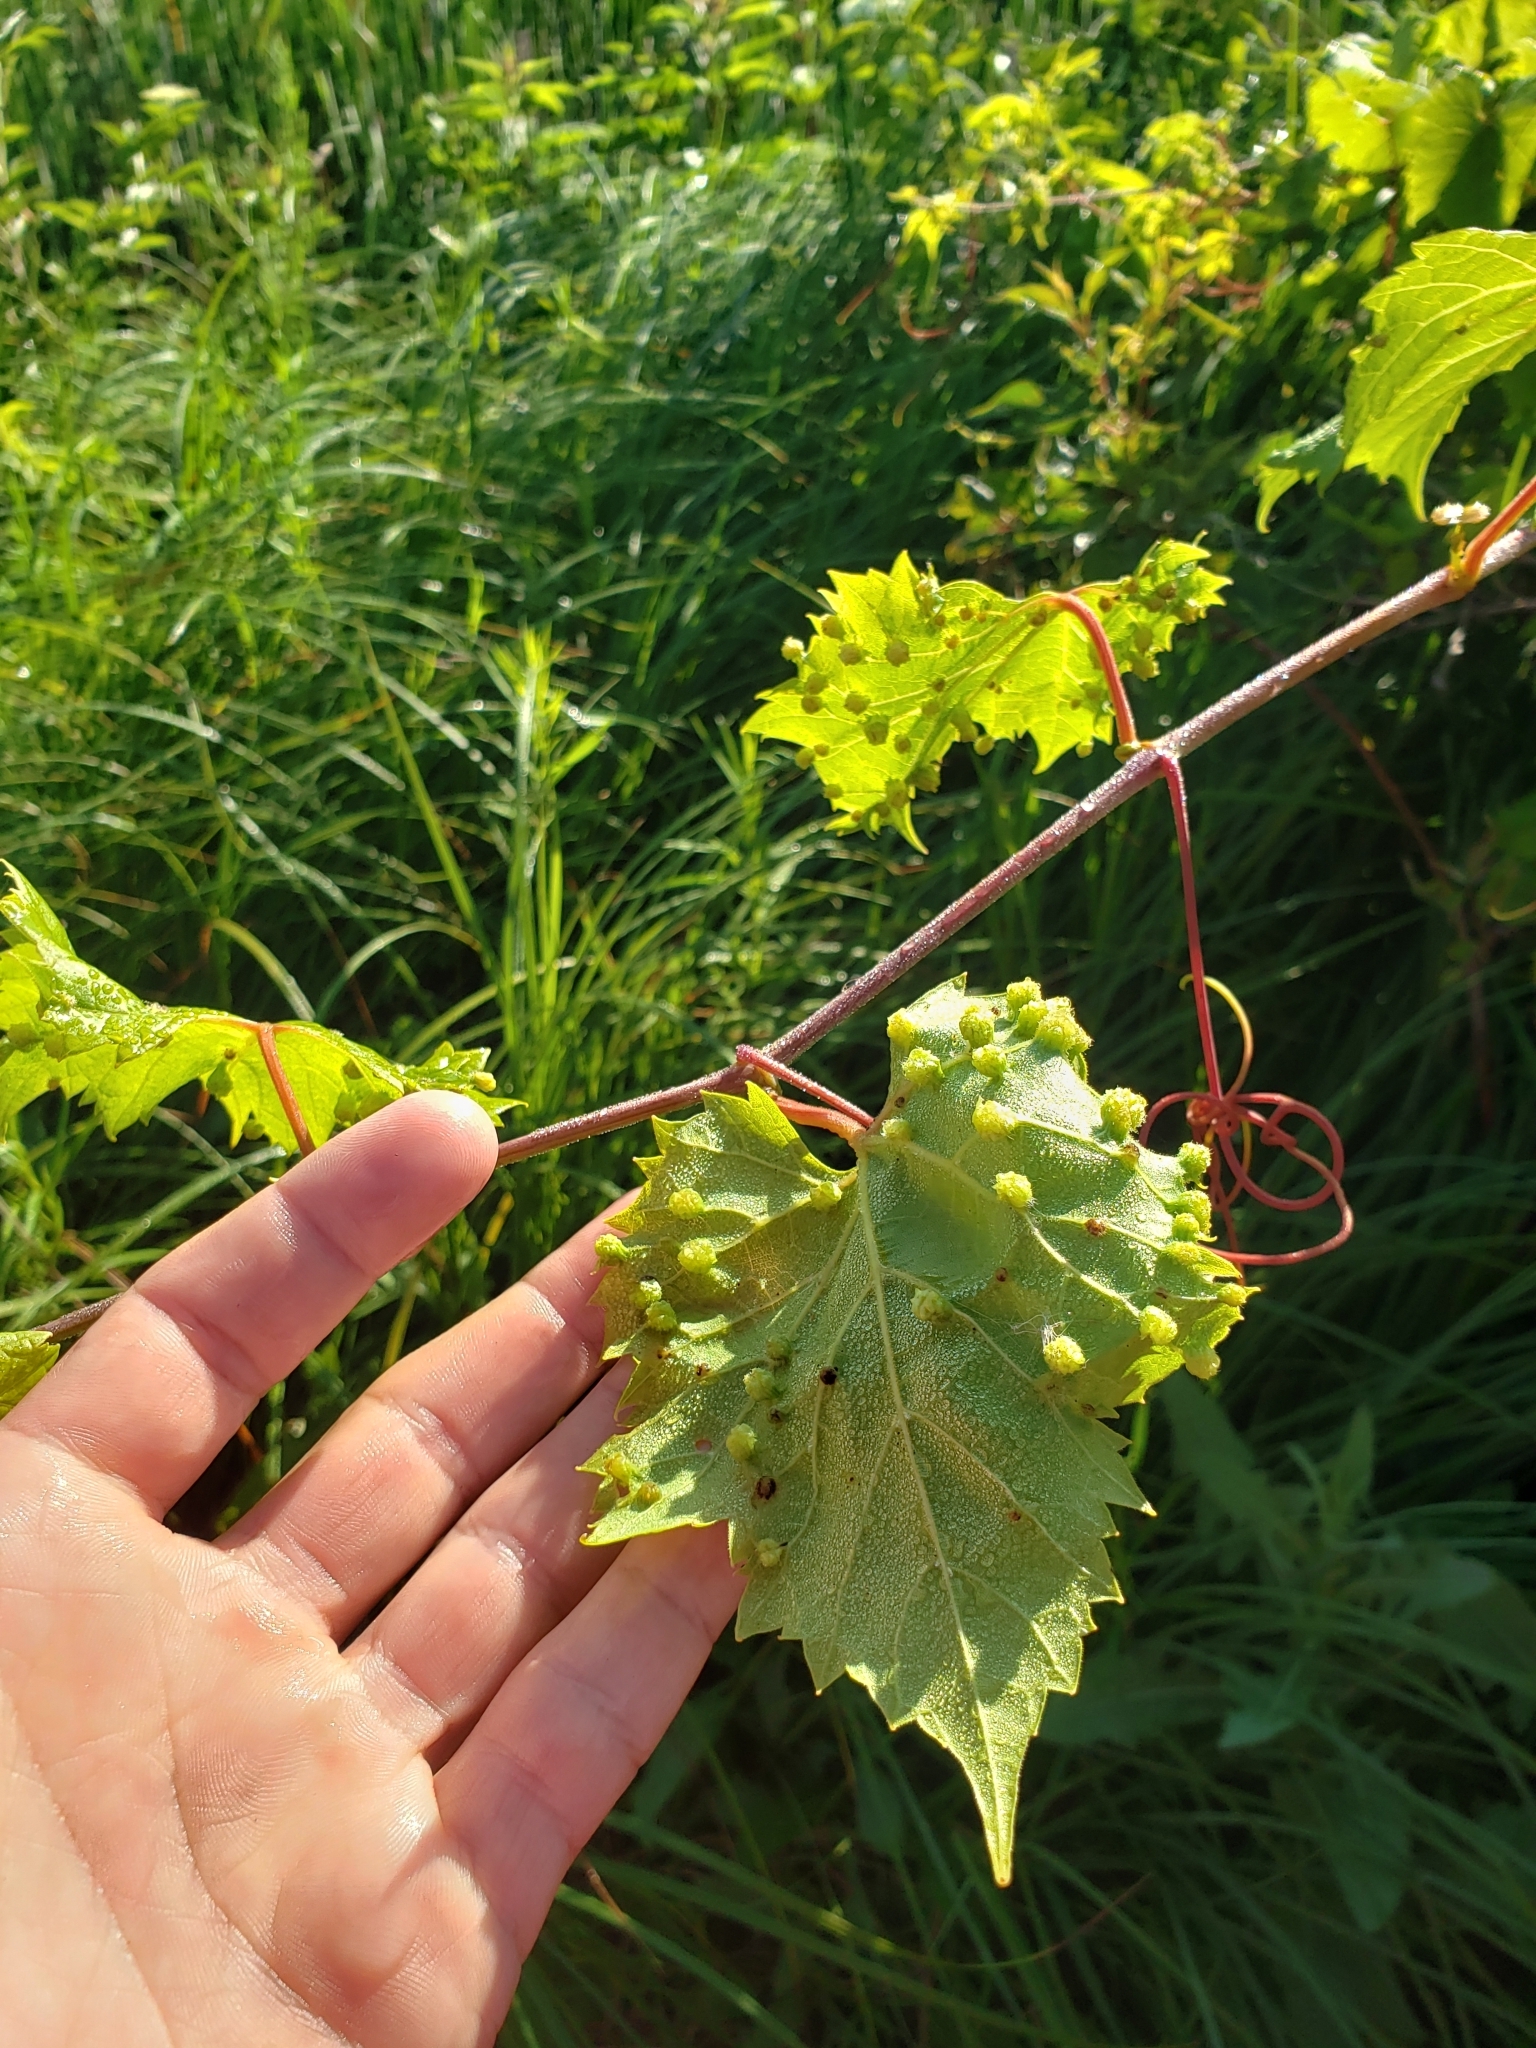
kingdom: Animalia
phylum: Arthropoda
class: Insecta
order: Hemiptera
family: Phylloxeridae
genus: Daktulosphaira
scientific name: Daktulosphaira vitifoliae
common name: Grape phylloxera
